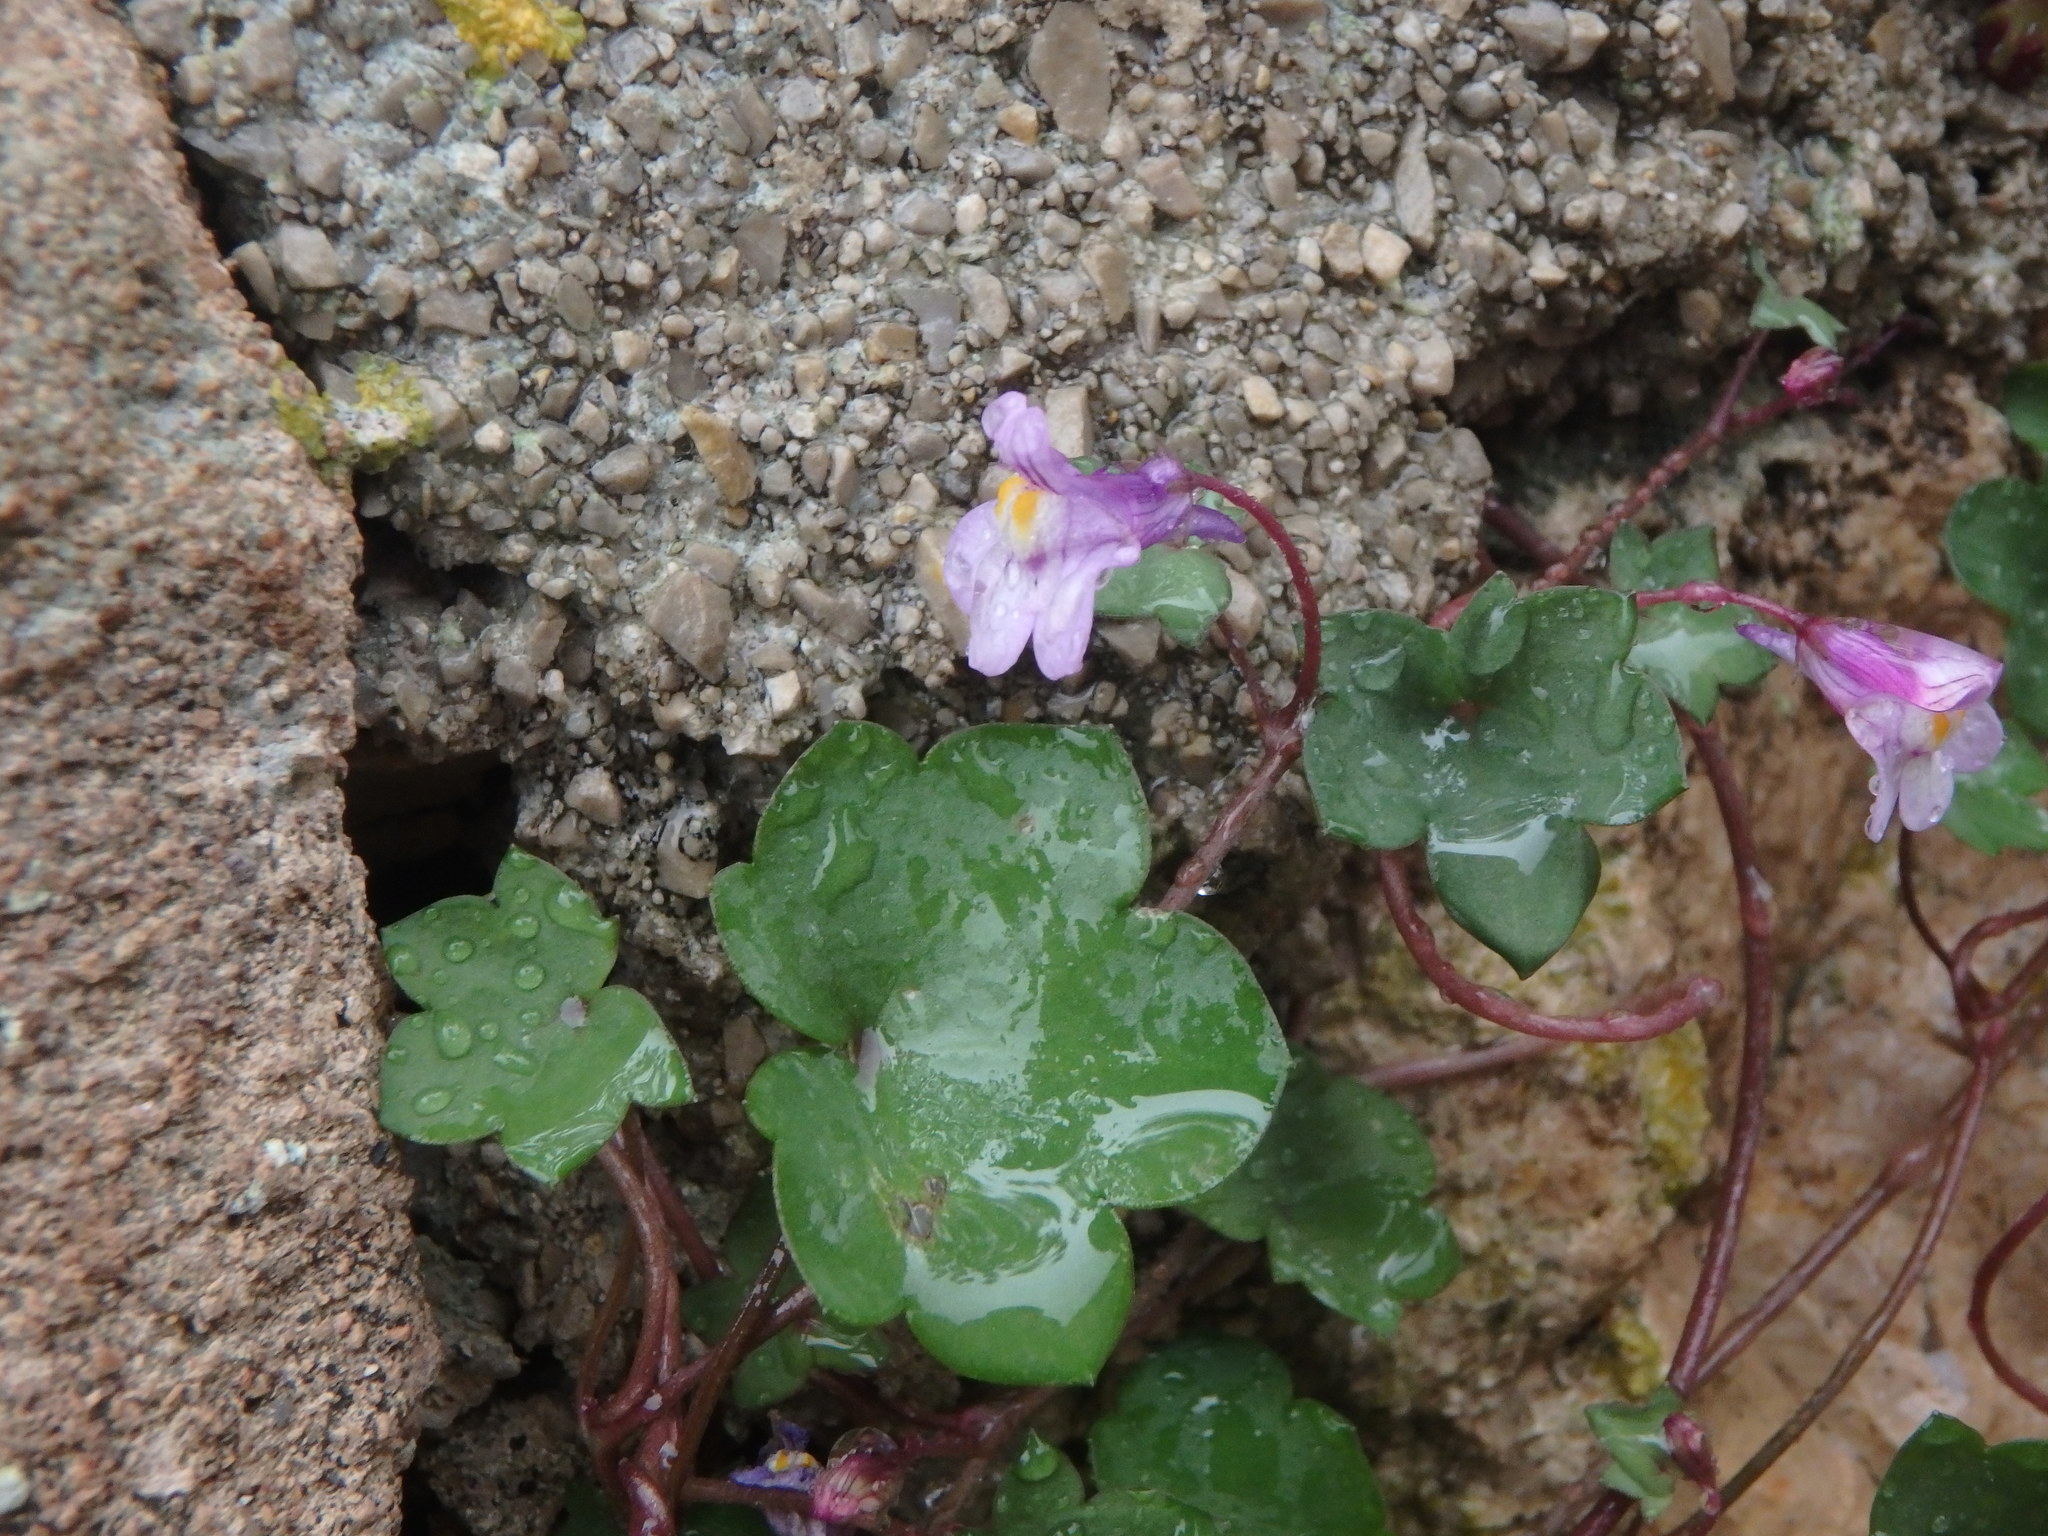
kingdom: Plantae
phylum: Tracheophyta
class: Magnoliopsida
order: Lamiales
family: Plantaginaceae
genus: Cymbalaria
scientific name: Cymbalaria muralis
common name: Ivy-leaved toadflax
